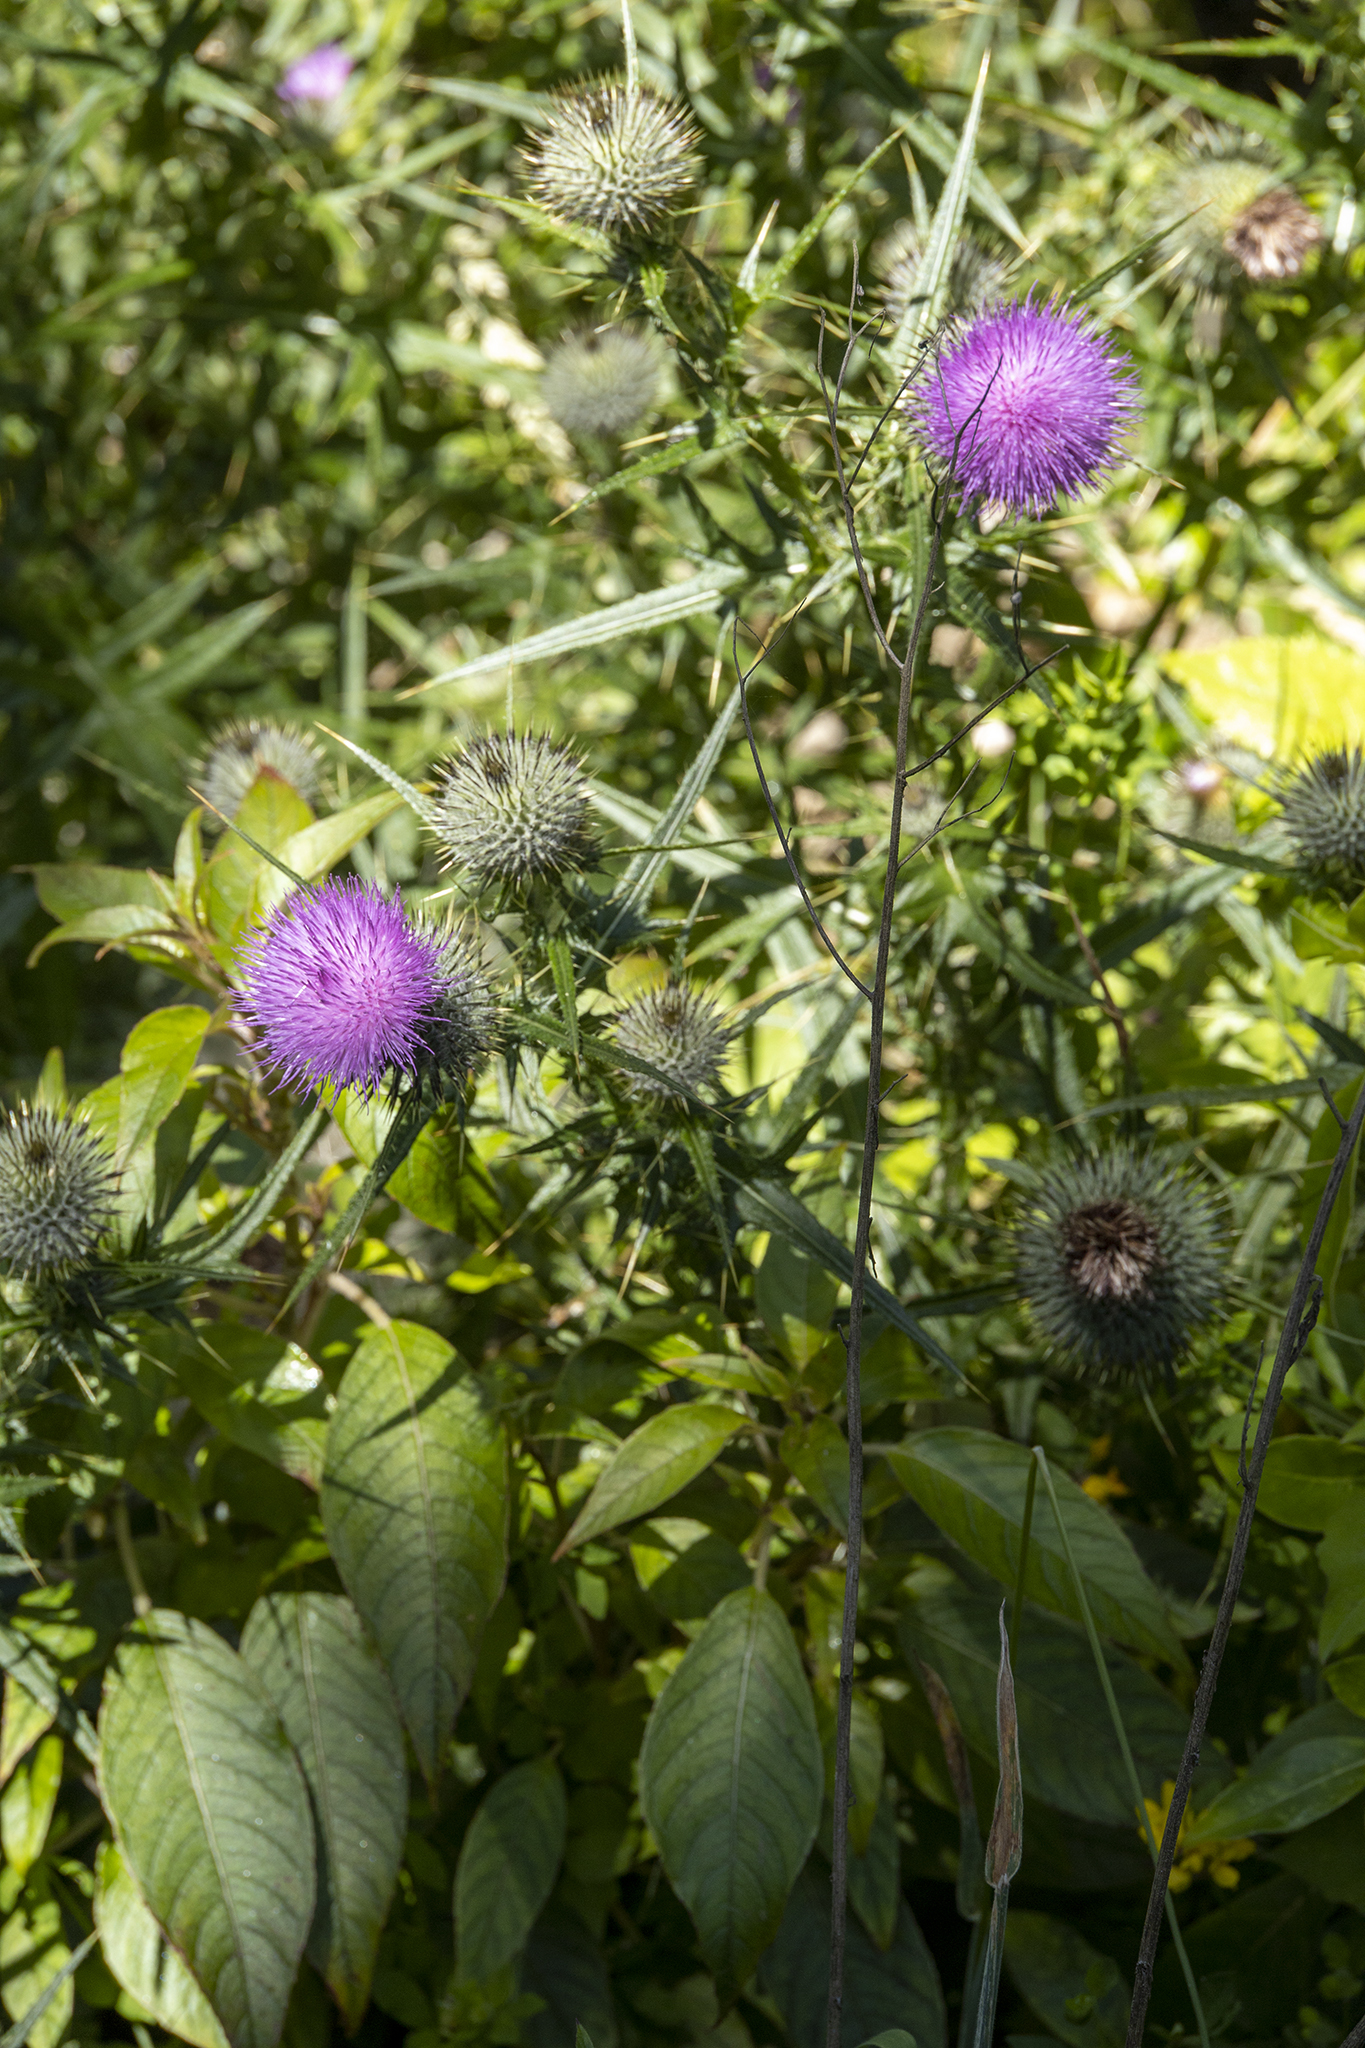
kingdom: Plantae
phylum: Tracheophyta
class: Magnoliopsida
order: Asterales
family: Asteraceae
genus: Cirsium
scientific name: Cirsium vulgare
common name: Bull thistle
